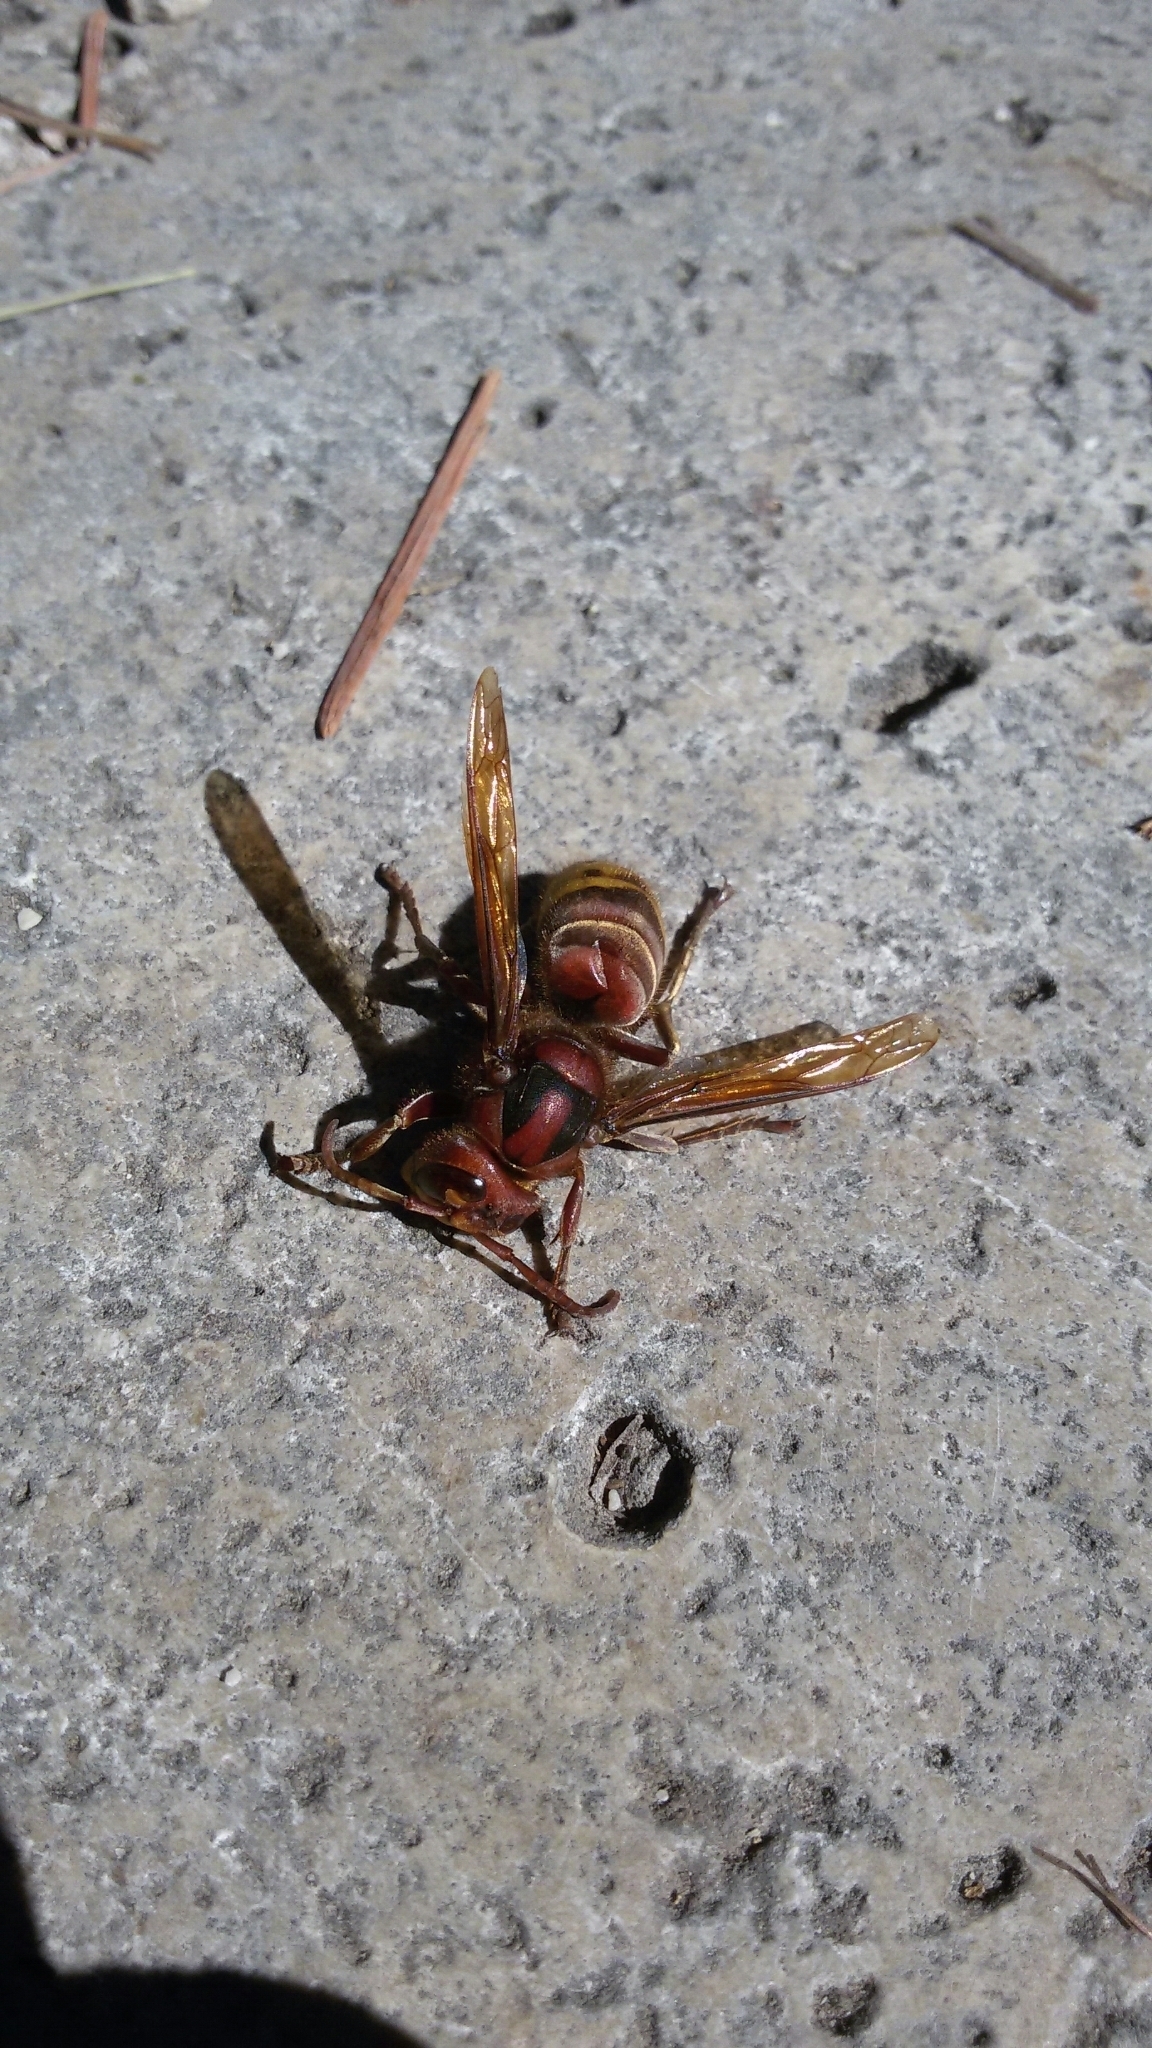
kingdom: Animalia
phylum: Arthropoda
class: Insecta
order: Hymenoptera
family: Vespidae
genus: Vespa
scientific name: Vespa crabro
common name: Hornet
